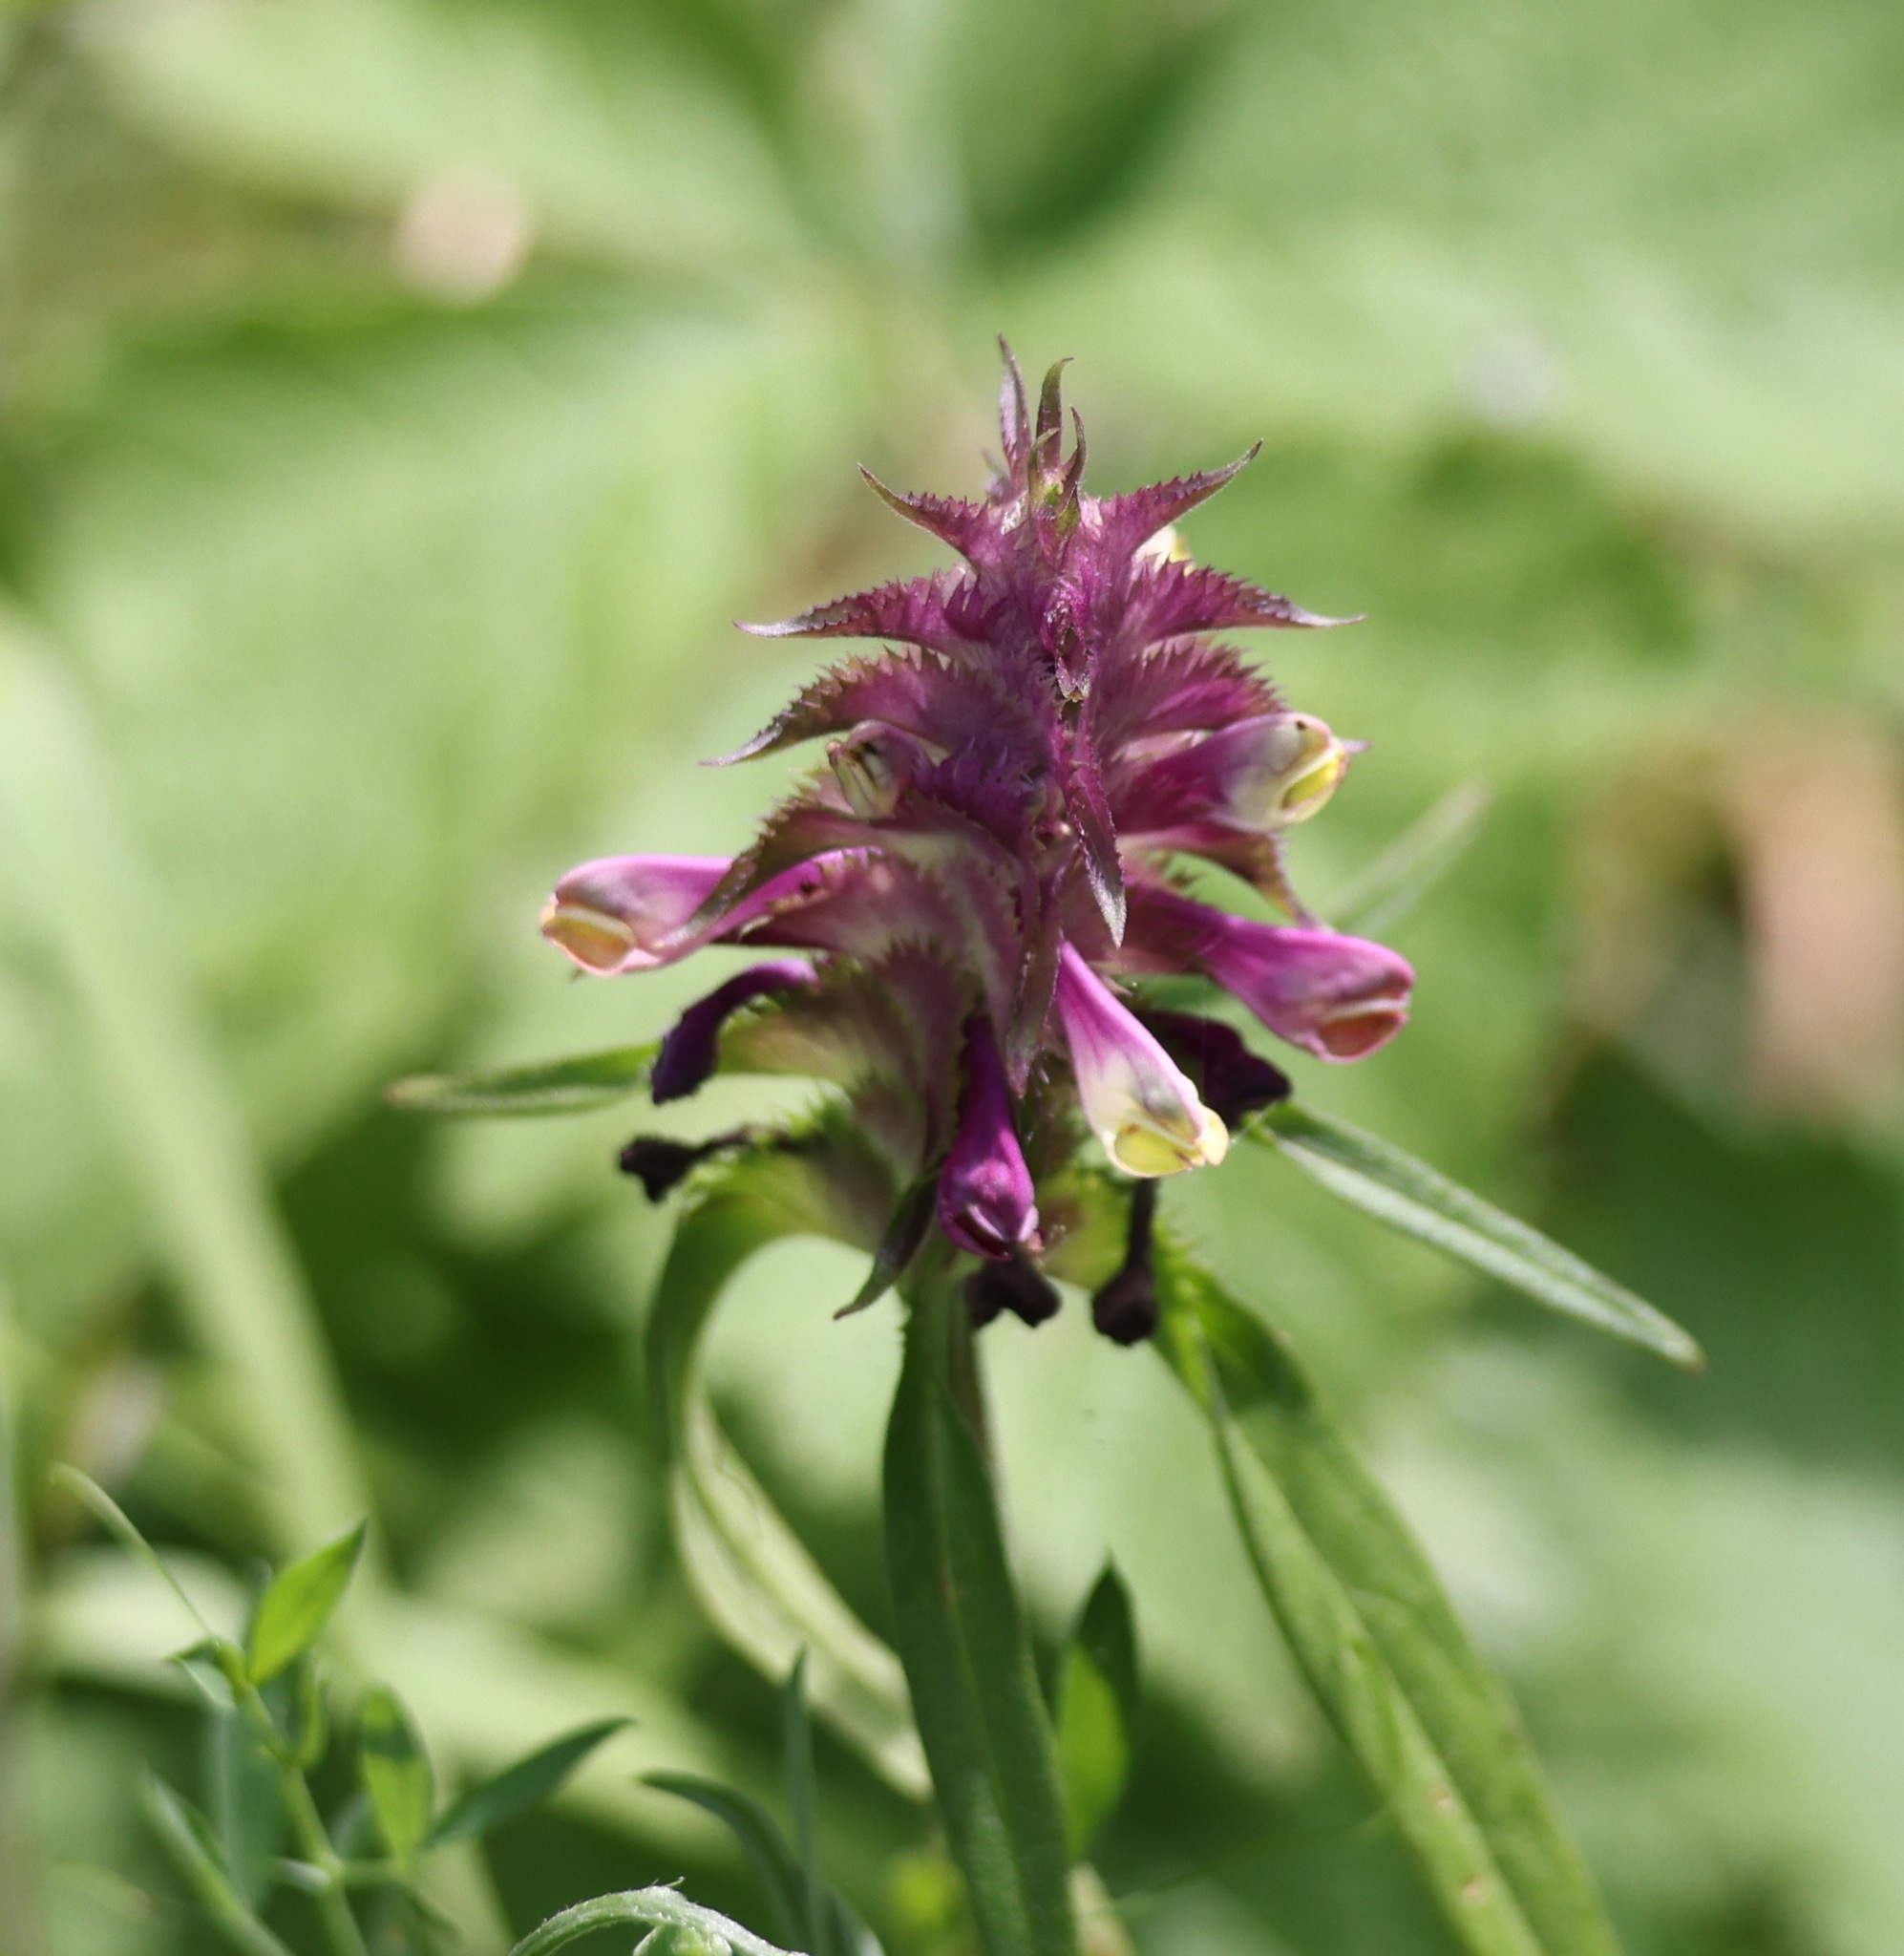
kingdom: Plantae
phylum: Tracheophyta
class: Magnoliopsida
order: Lamiales
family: Orobanchaceae
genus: Melampyrum
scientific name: Melampyrum cristatum
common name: Crested cow-wheat
